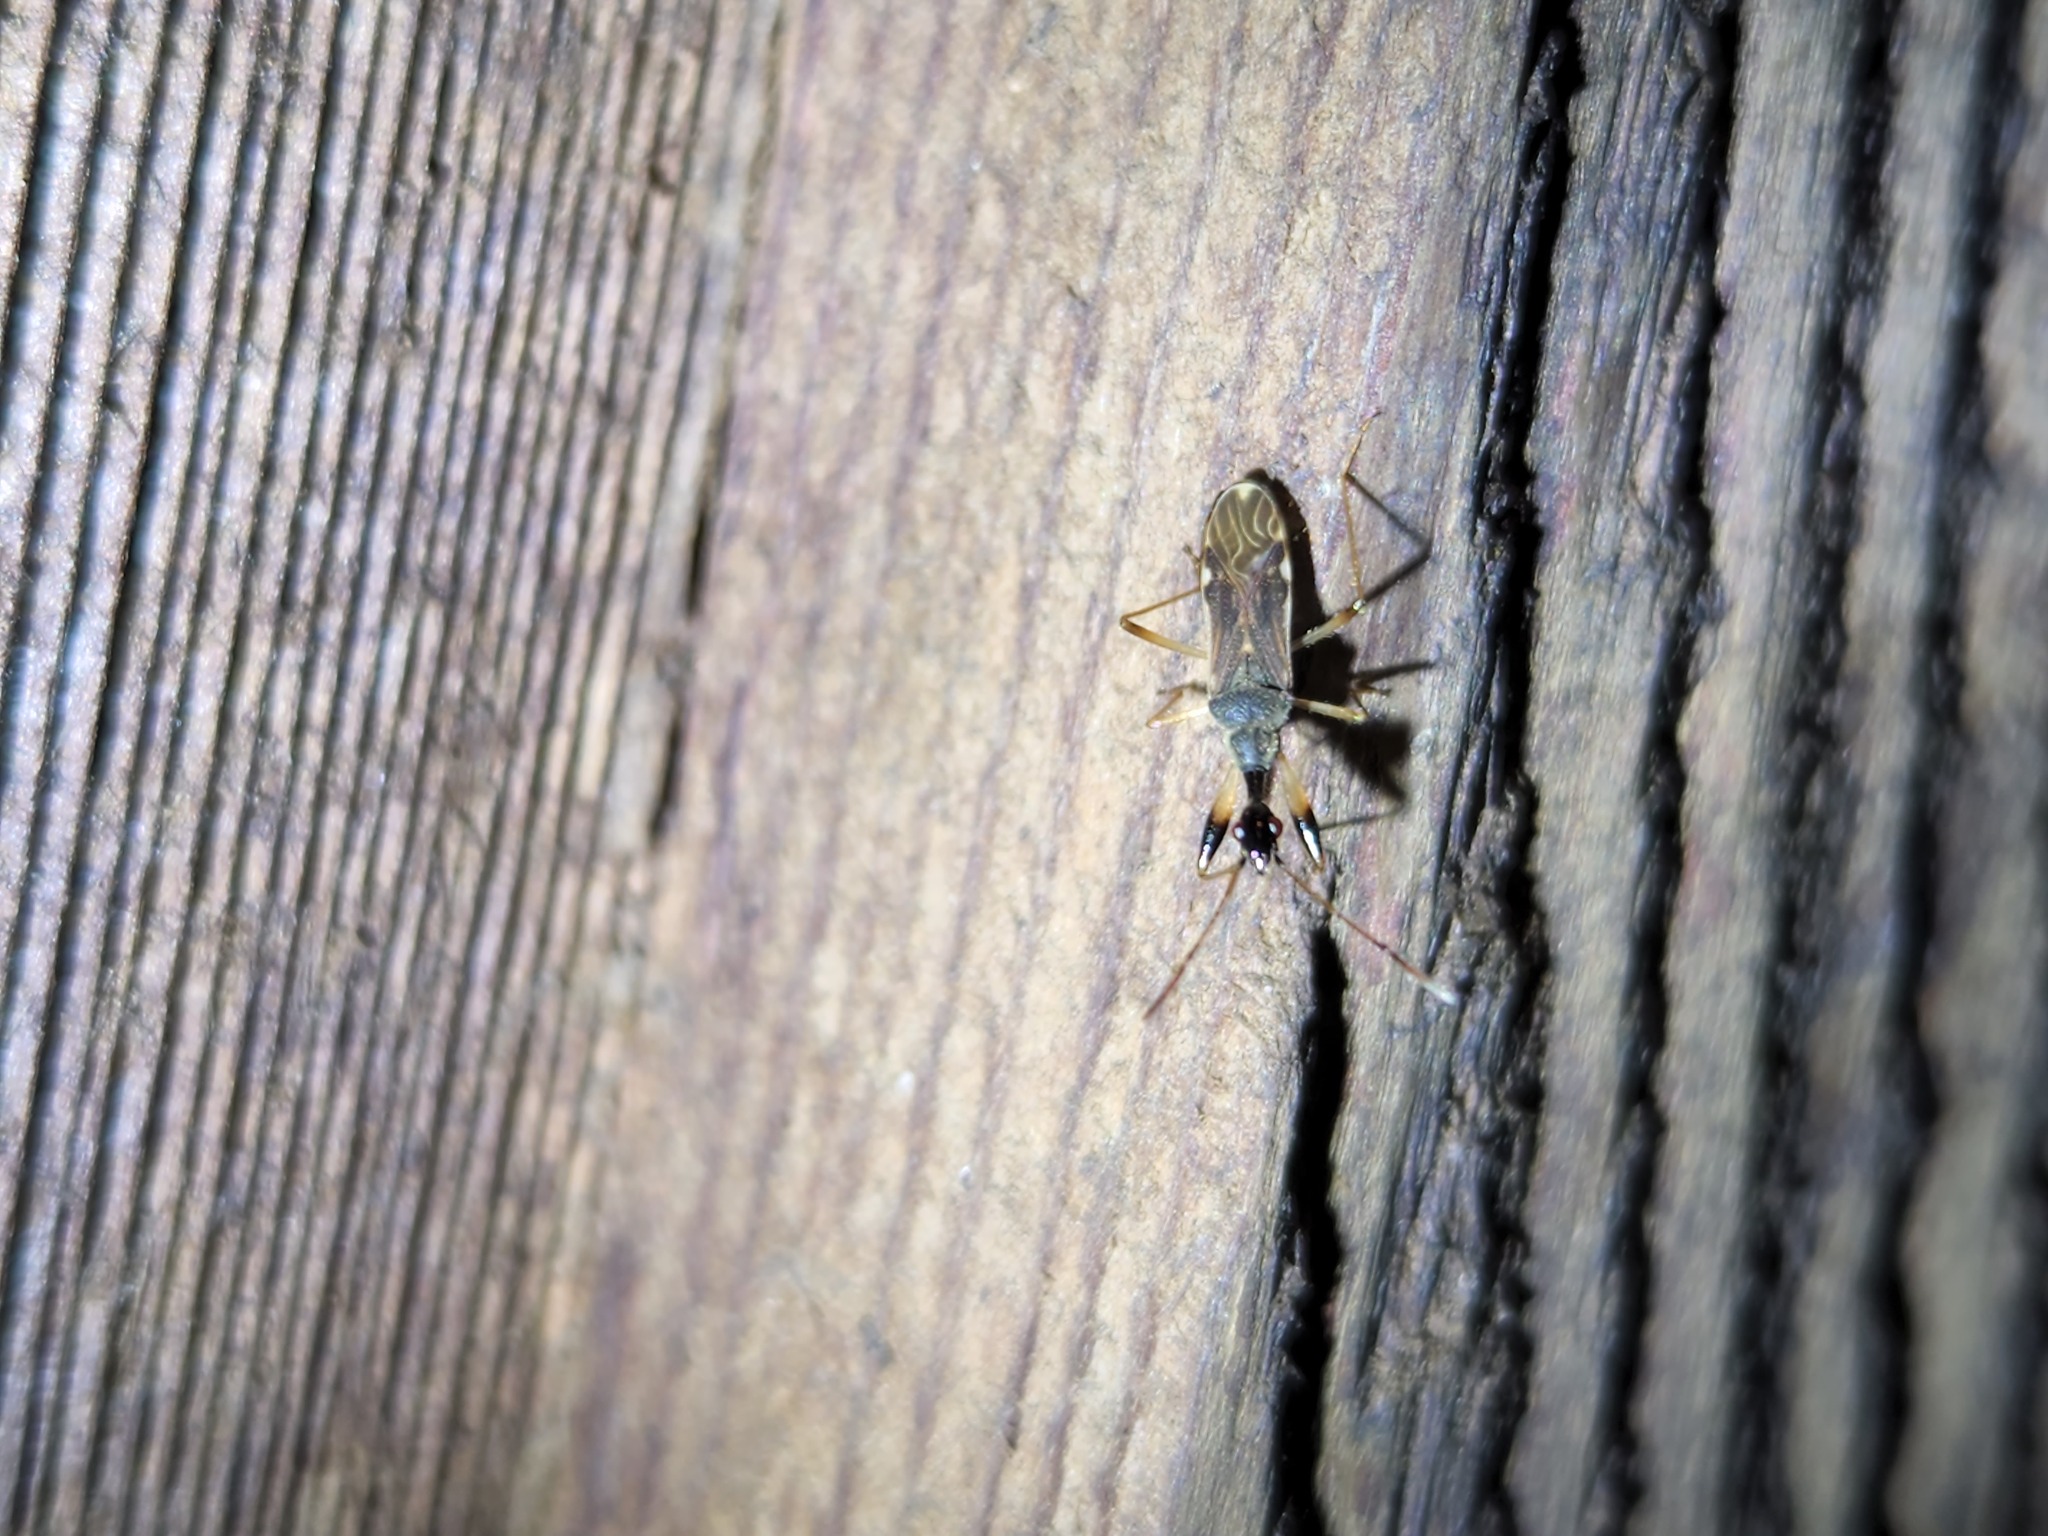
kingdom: Animalia
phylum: Arthropoda
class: Insecta
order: Hemiptera
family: Rhyparochromidae
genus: Myodocha
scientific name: Myodocha serripes
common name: Long-necked seed bug
